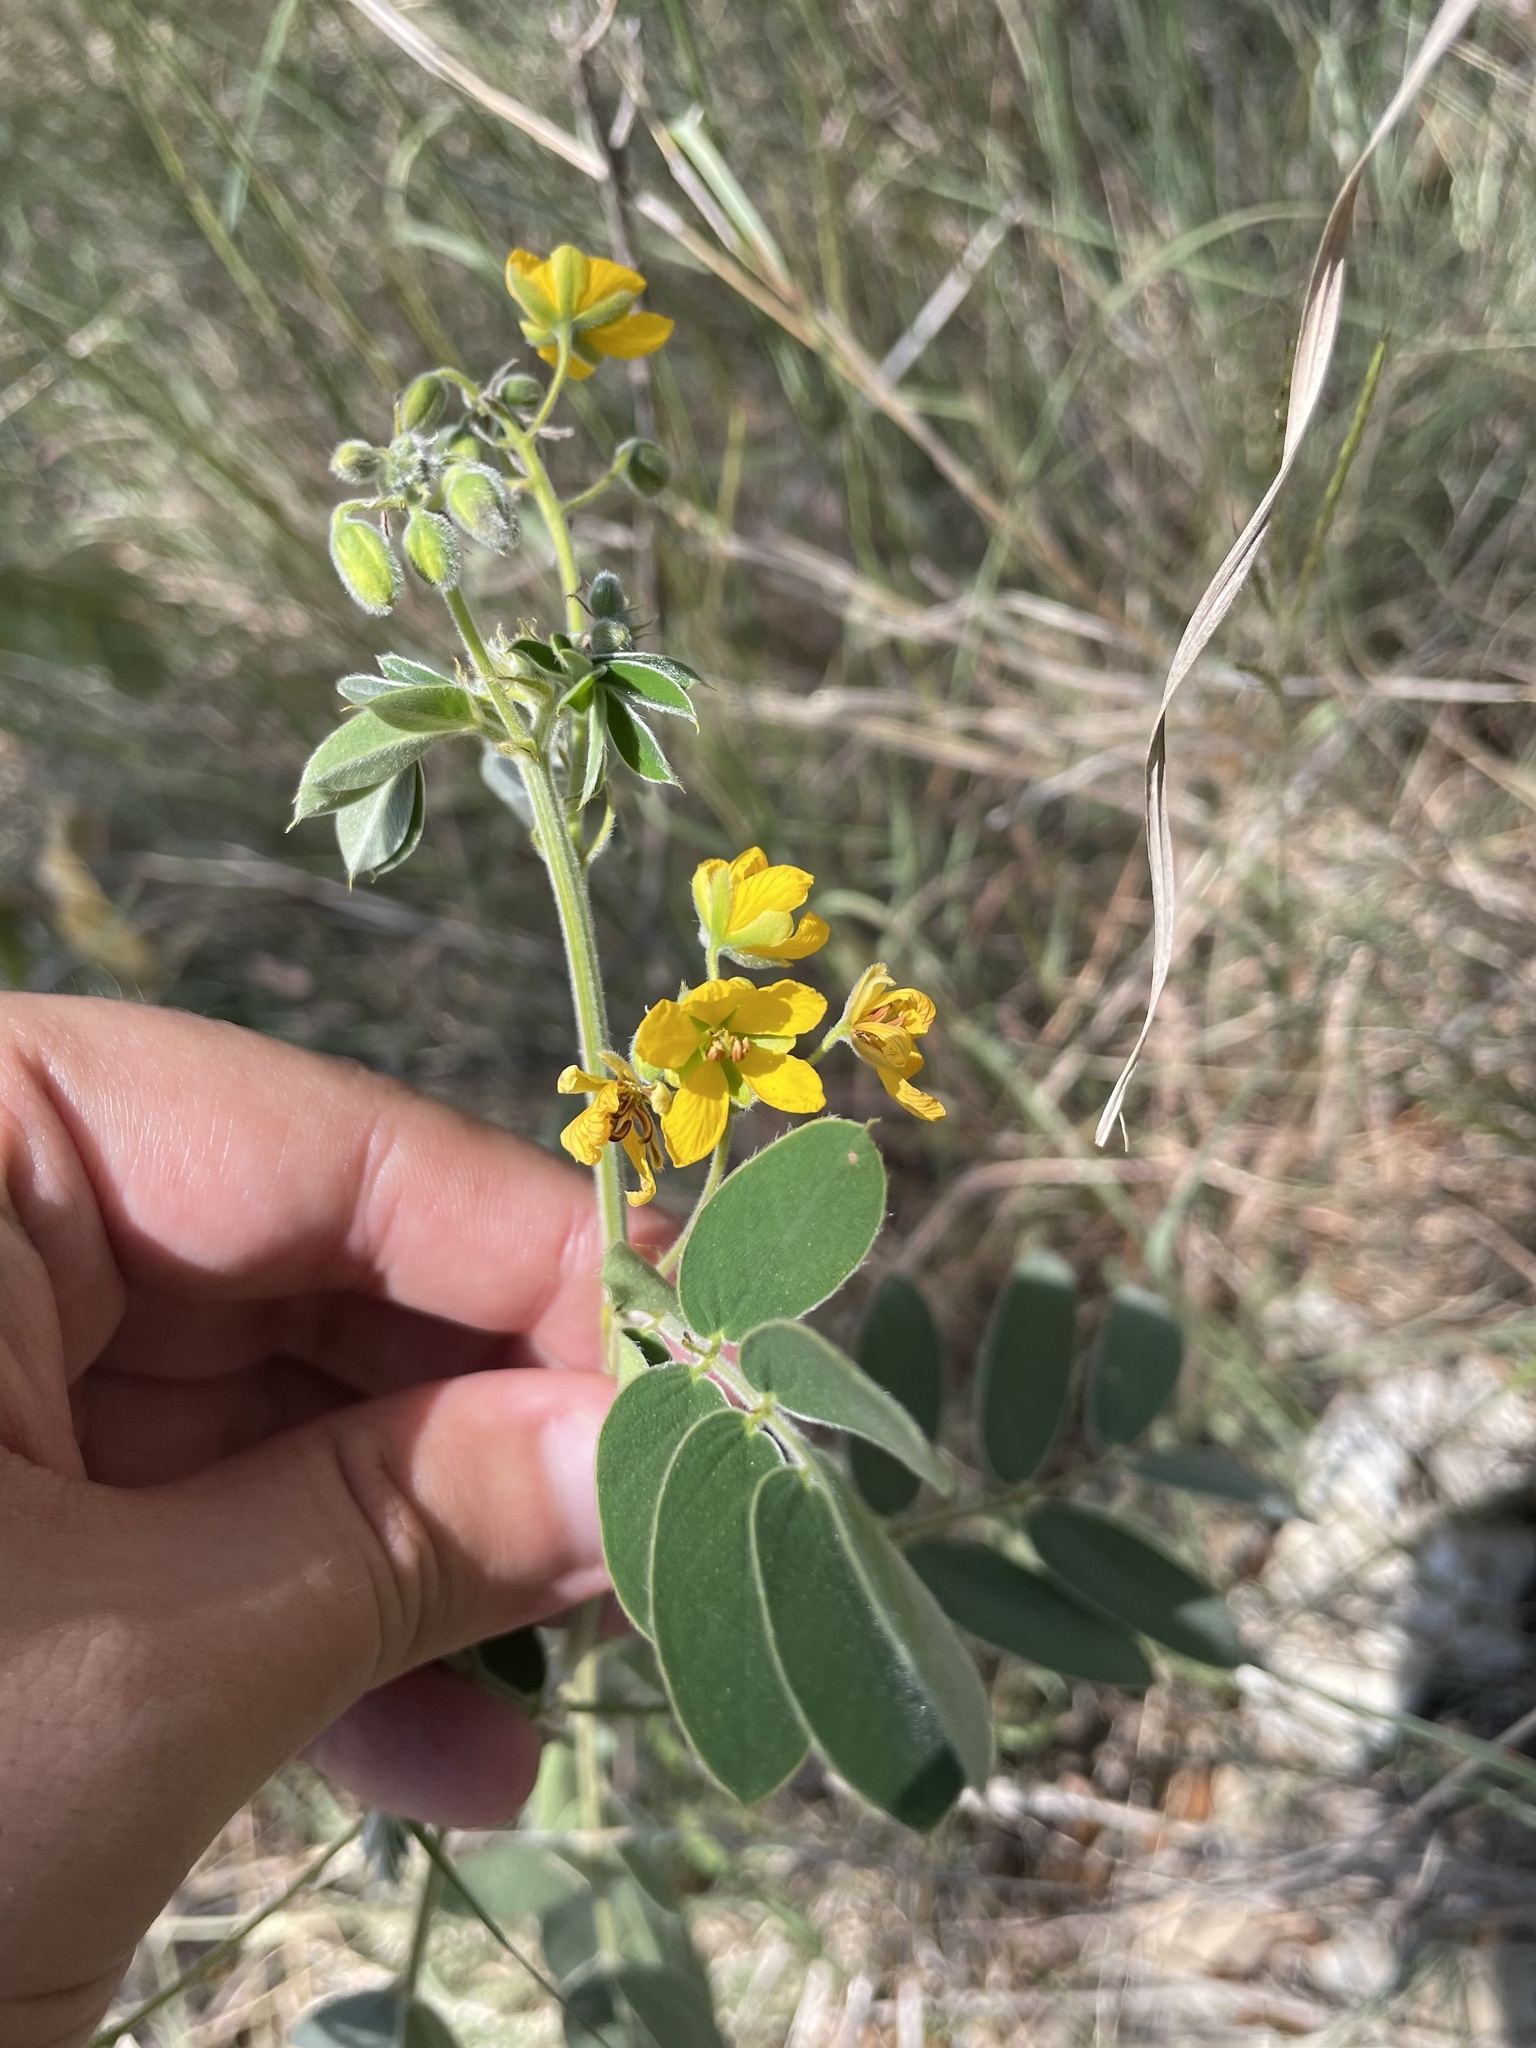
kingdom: Plantae
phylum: Tracheophyta
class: Magnoliopsida
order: Fabales
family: Fabaceae
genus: Senna
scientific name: Senna lindheimeriana
